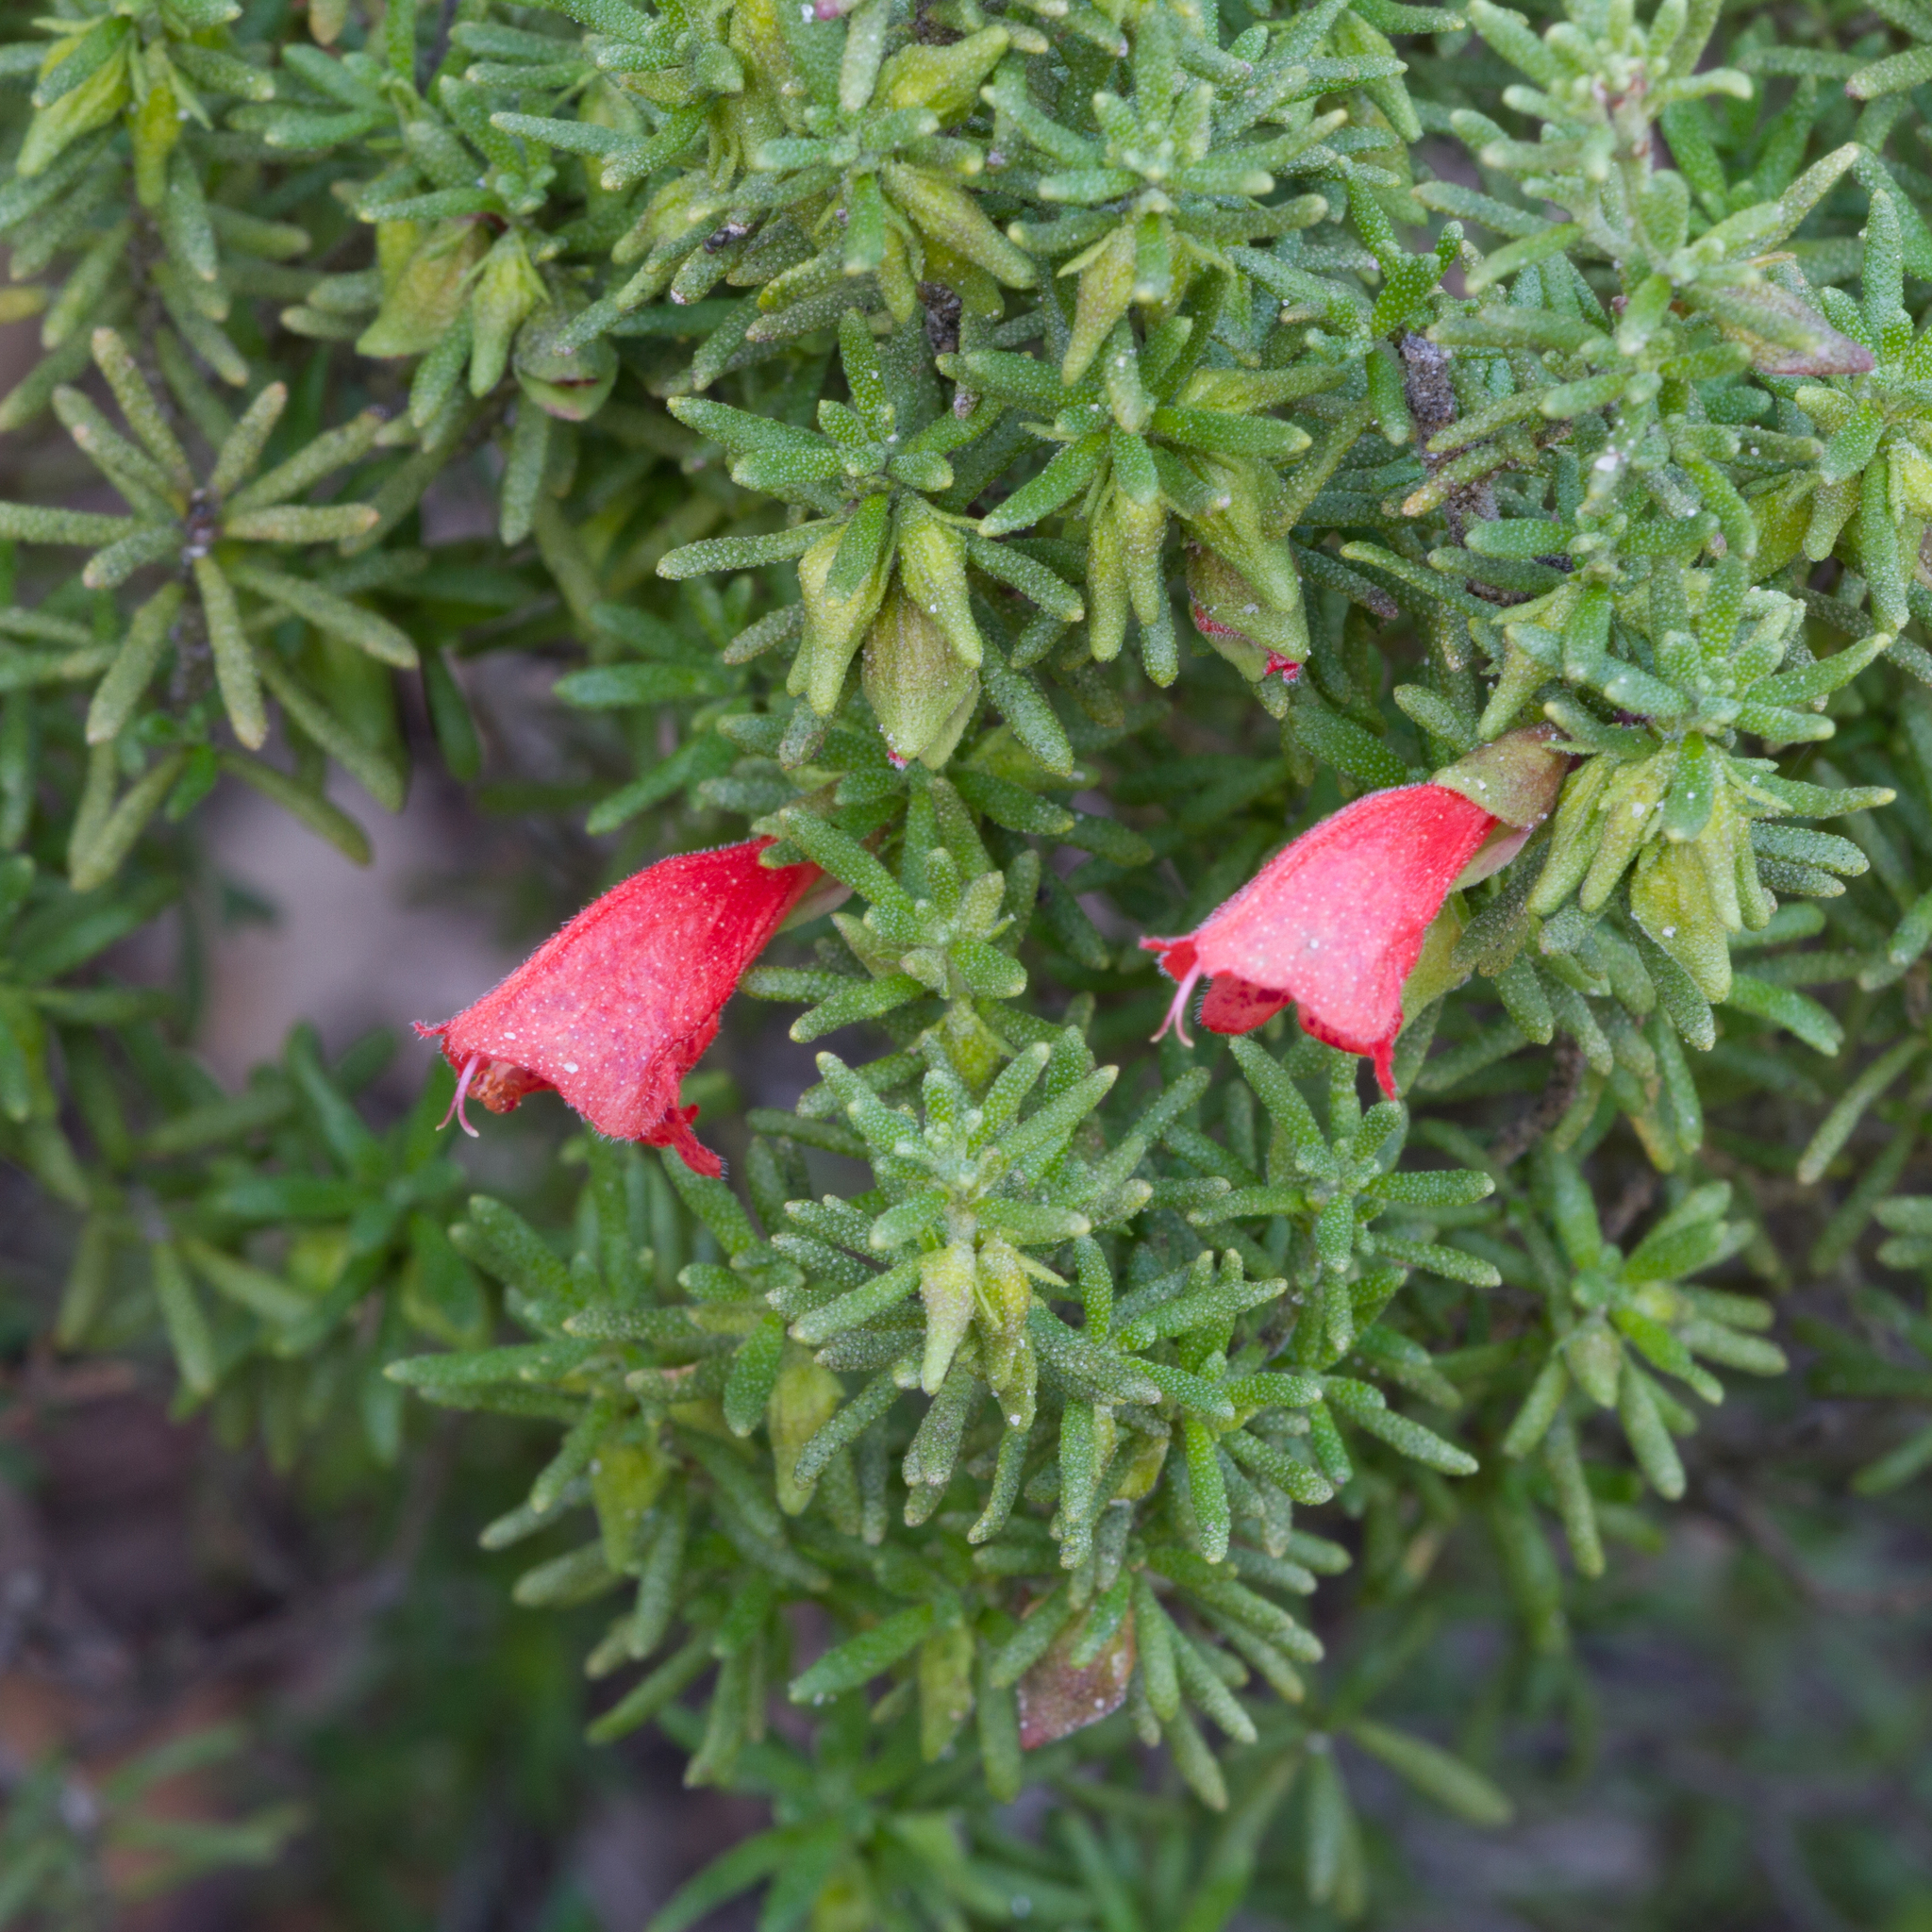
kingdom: Plantae
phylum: Tracheophyta
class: Magnoliopsida
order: Lamiales
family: Lamiaceae
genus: Prostanthera
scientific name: Prostanthera aspalathoides
